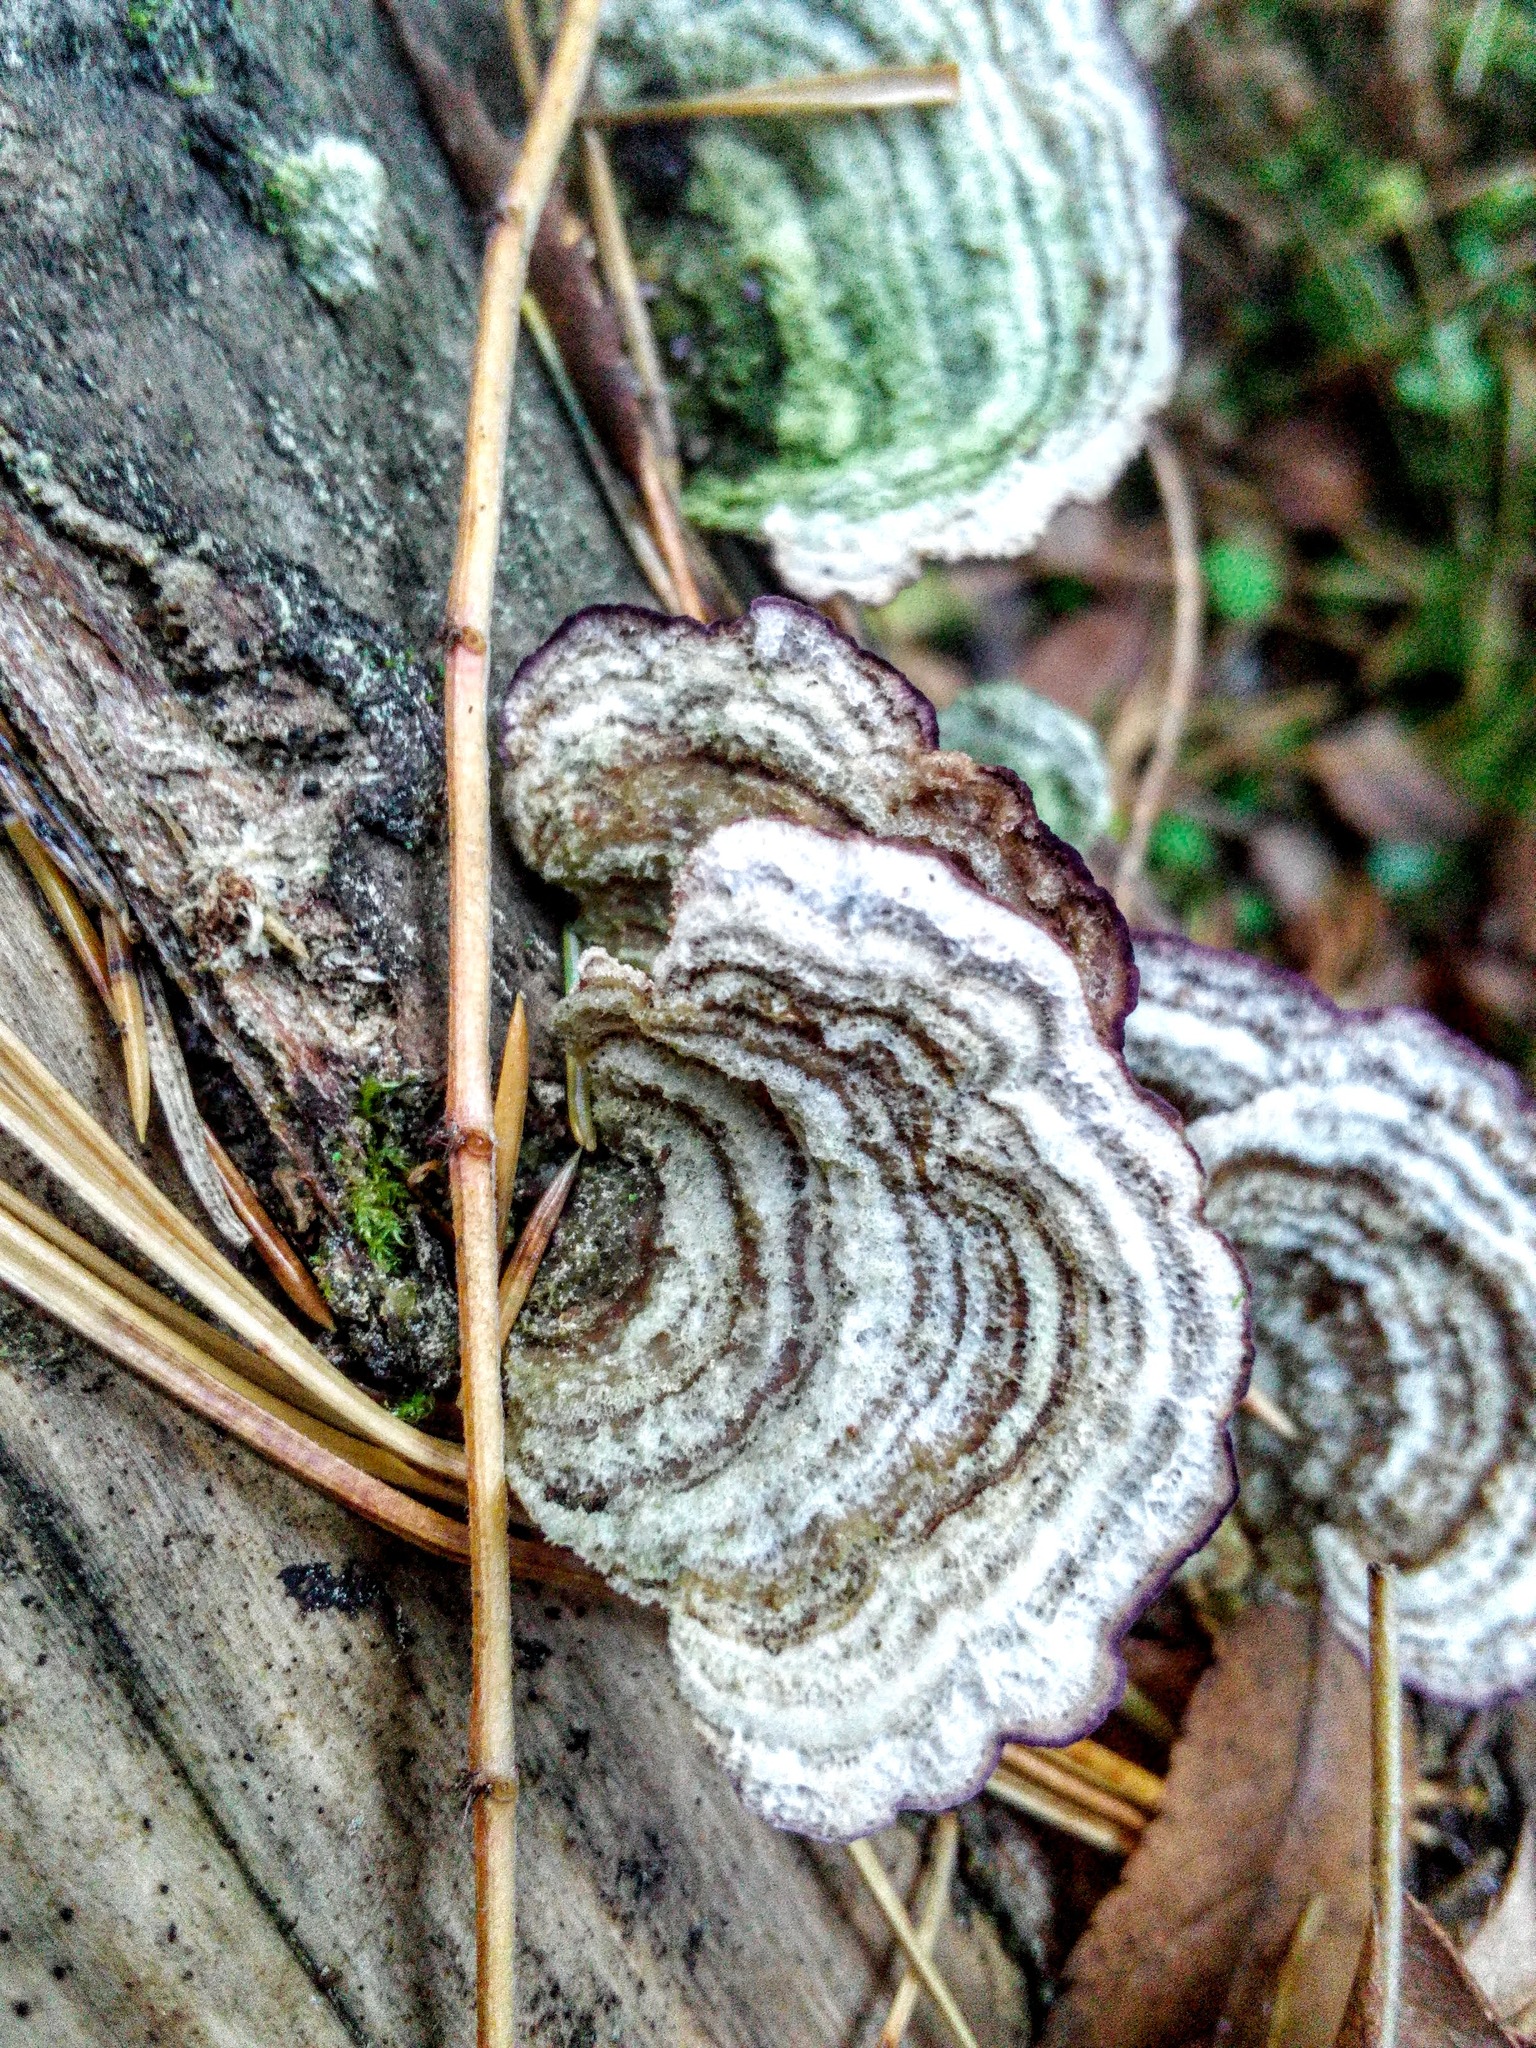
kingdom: Fungi
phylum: Basidiomycota
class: Agaricomycetes
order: Hymenochaetales
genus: Trichaptum
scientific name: Trichaptum fuscoviolaceum
